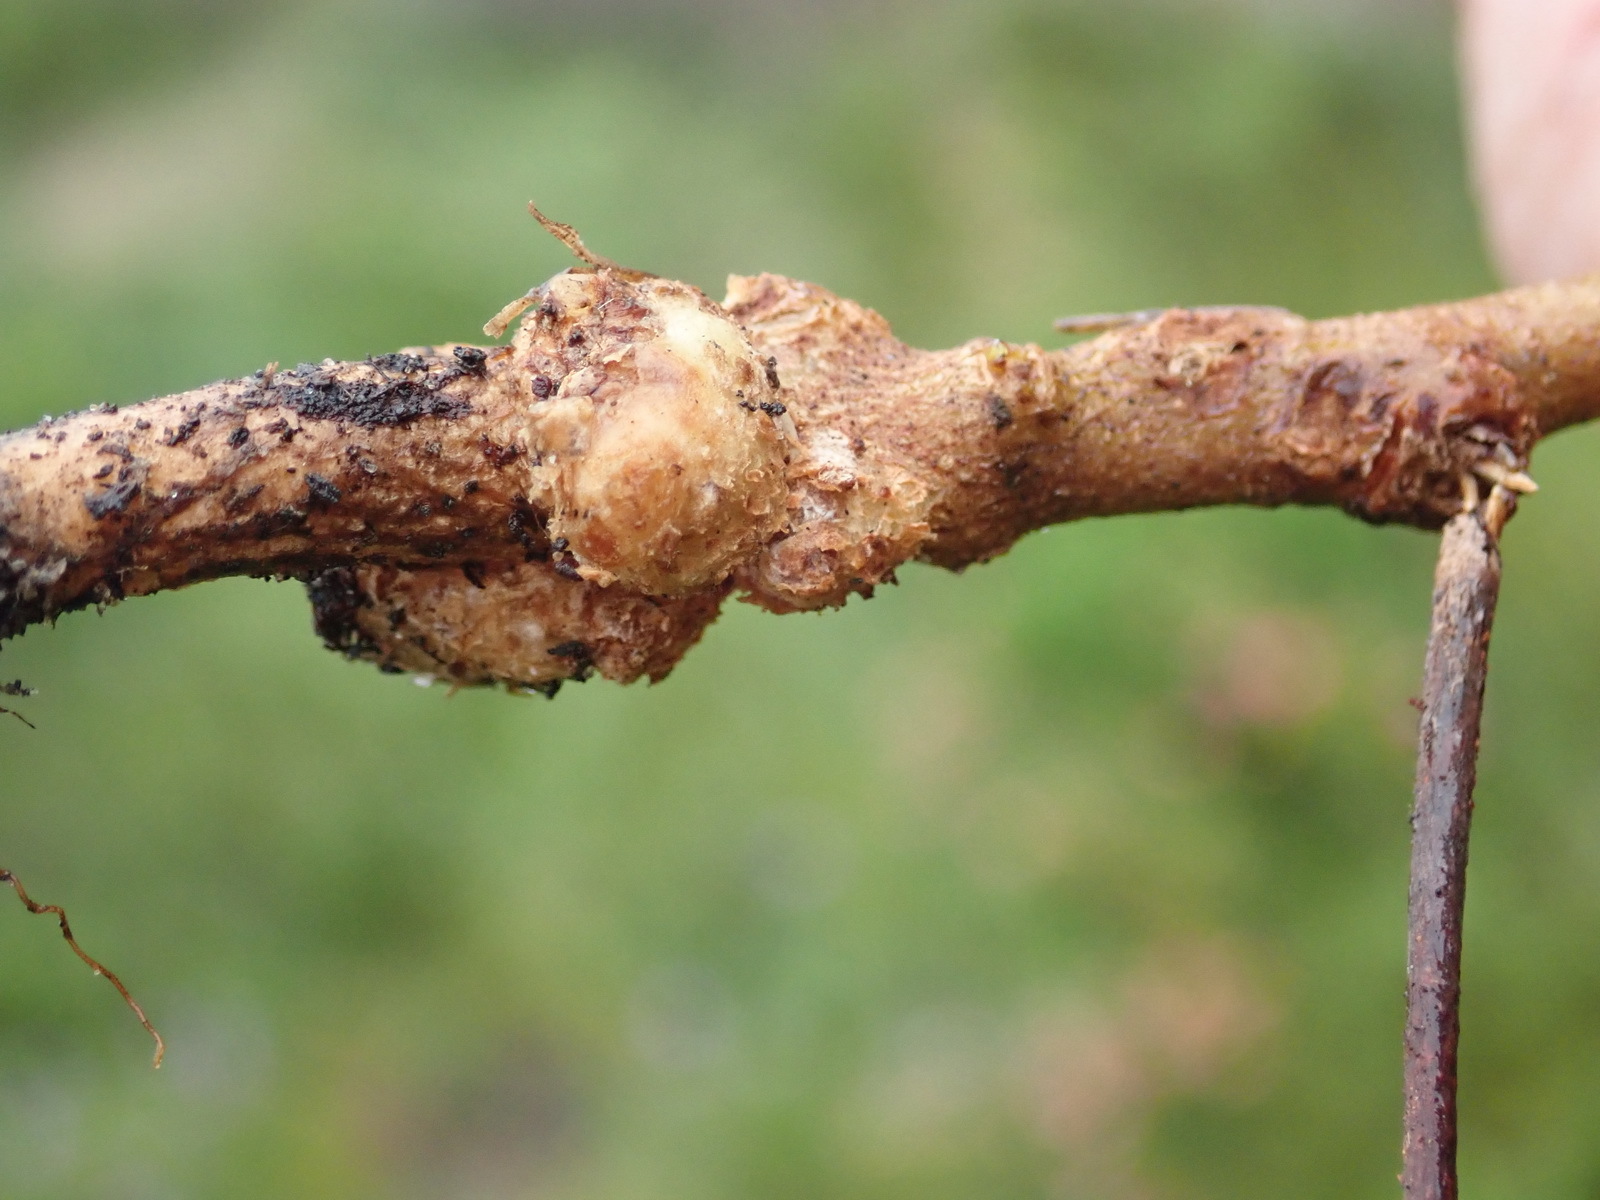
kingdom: Plantae
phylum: Tracheophyta
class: Magnoliopsida
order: Myrtales
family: Myrtaceae
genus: Corymbia
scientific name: Corymbia ficifolia
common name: Redflower gum
